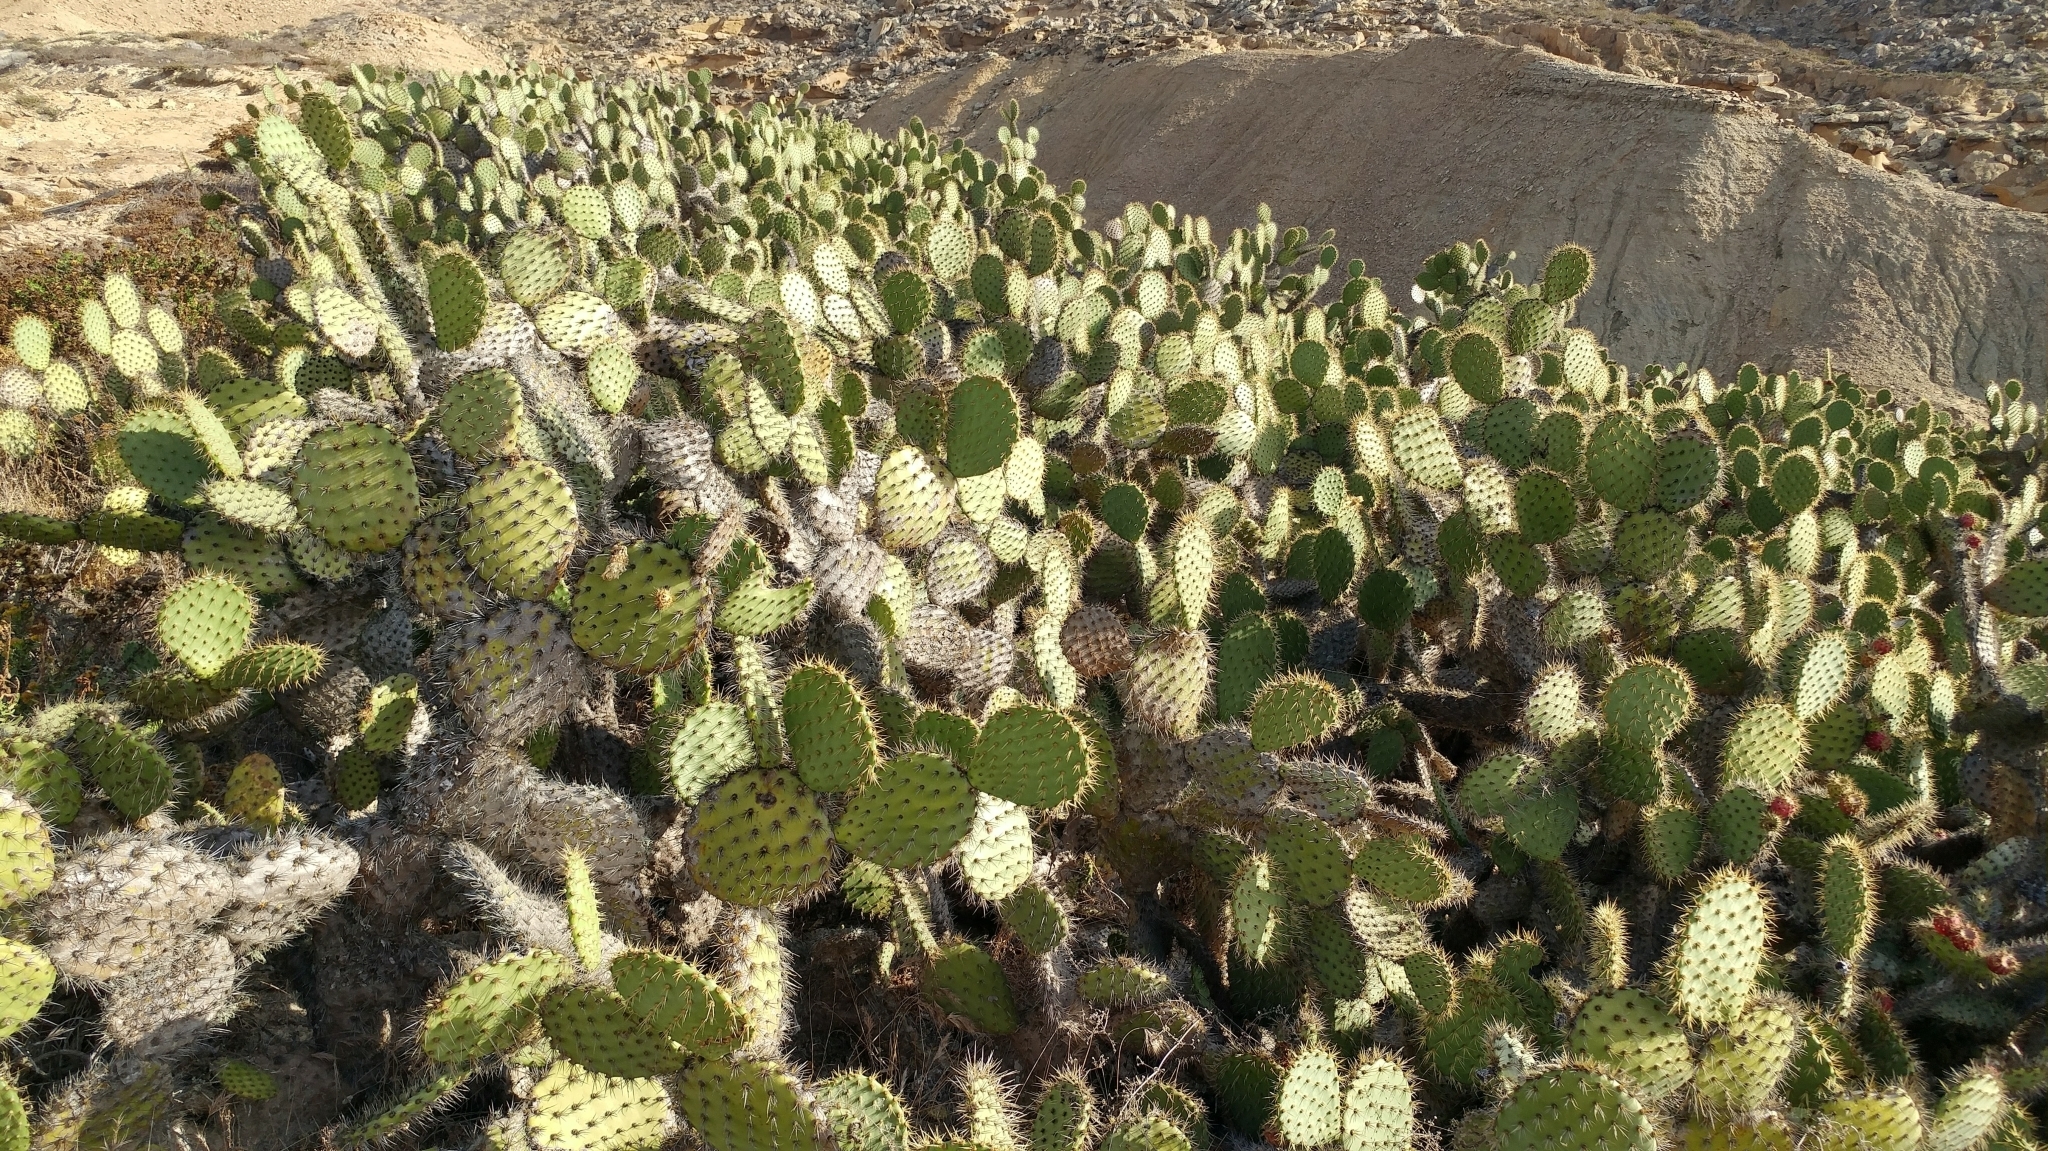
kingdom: Plantae
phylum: Tracheophyta
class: Magnoliopsida
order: Caryophyllales
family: Cactaceae
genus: Opuntia
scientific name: Opuntia oricola
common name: Chaparral prickly-pear
